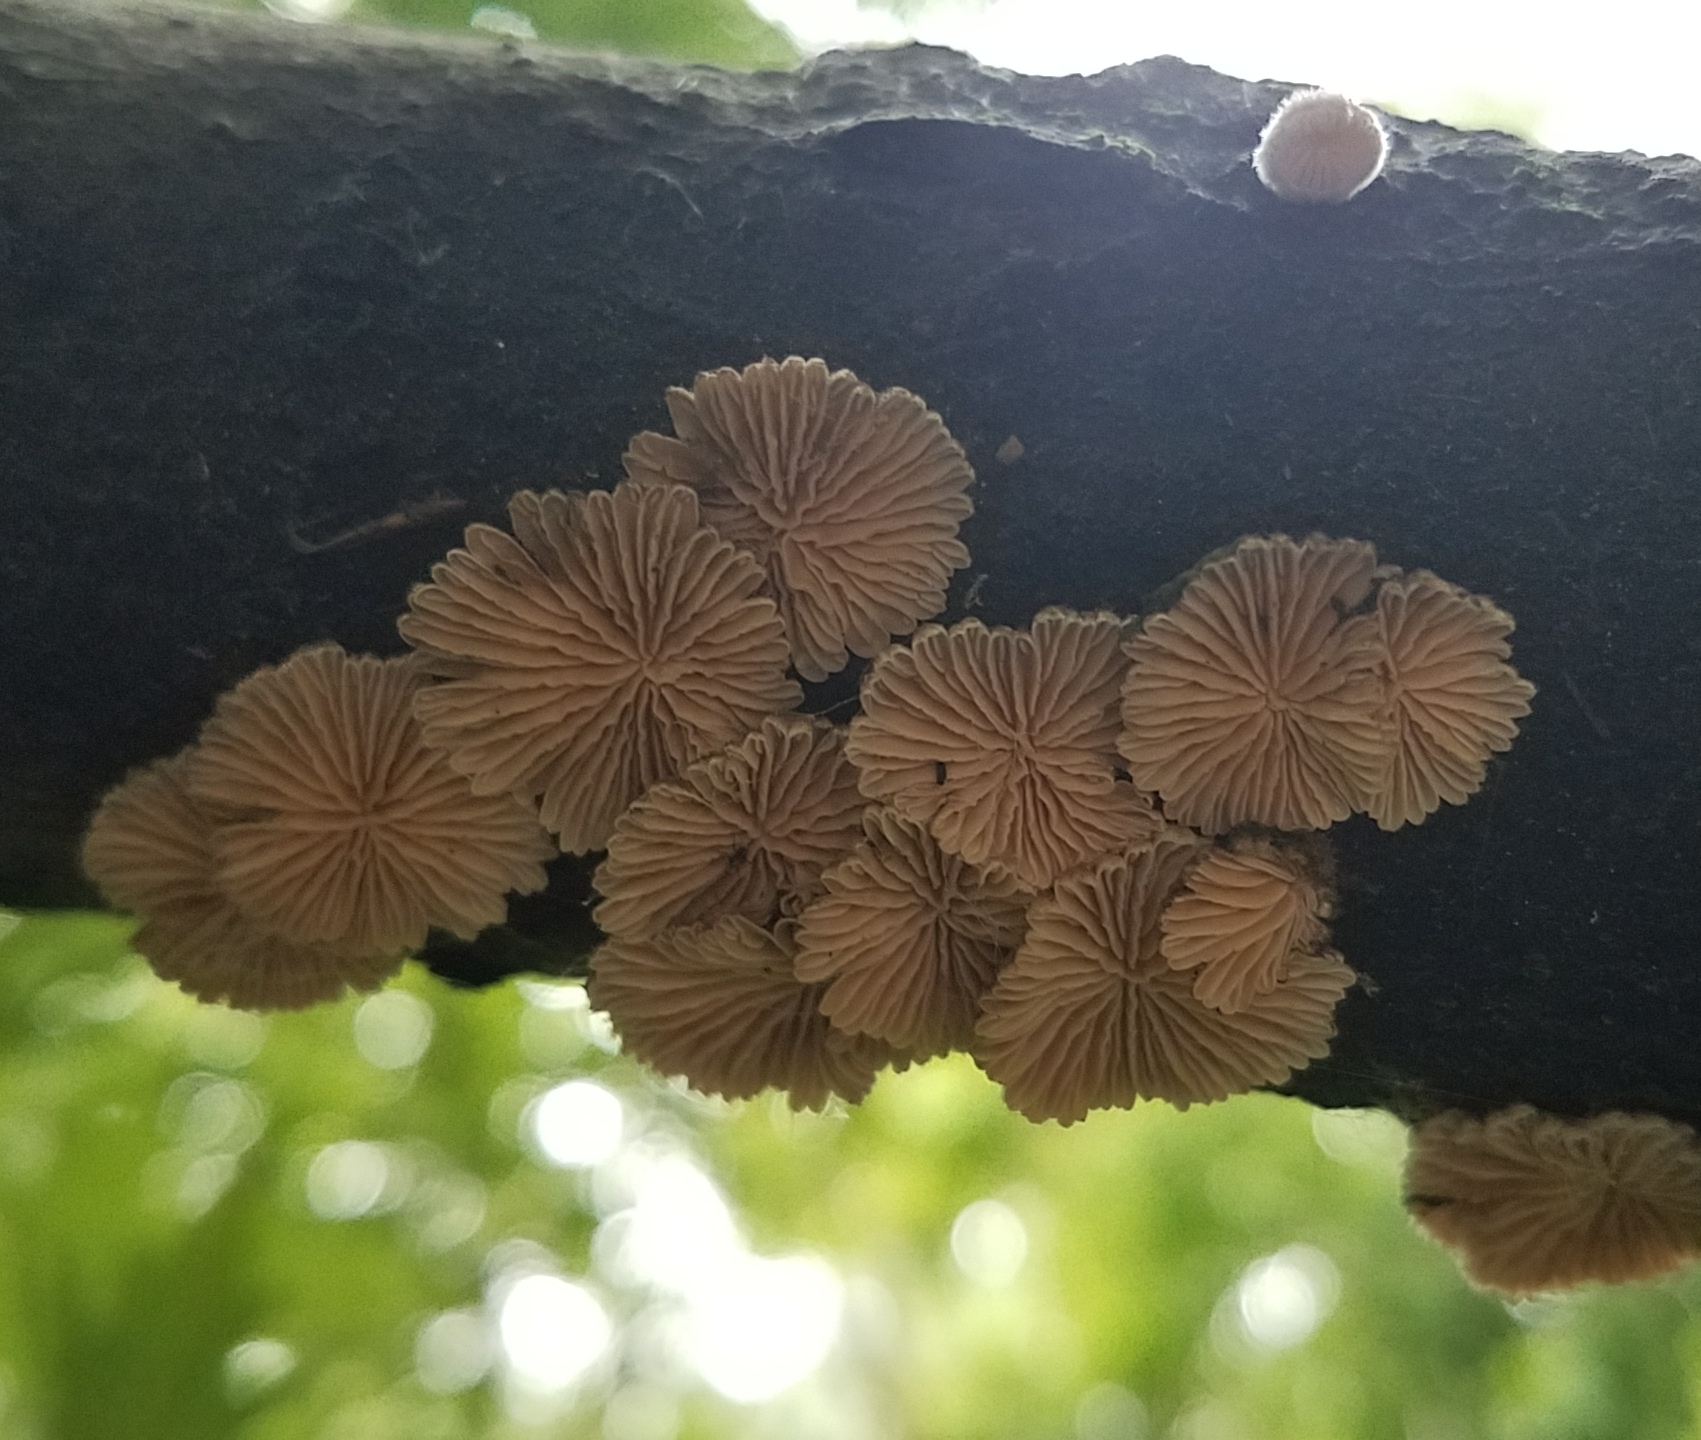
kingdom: Fungi
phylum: Basidiomycota
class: Agaricomycetes
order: Agaricales
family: Schizophyllaceae
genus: Schizophyllum
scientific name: Schizophyllum commune
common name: Common porecrust
